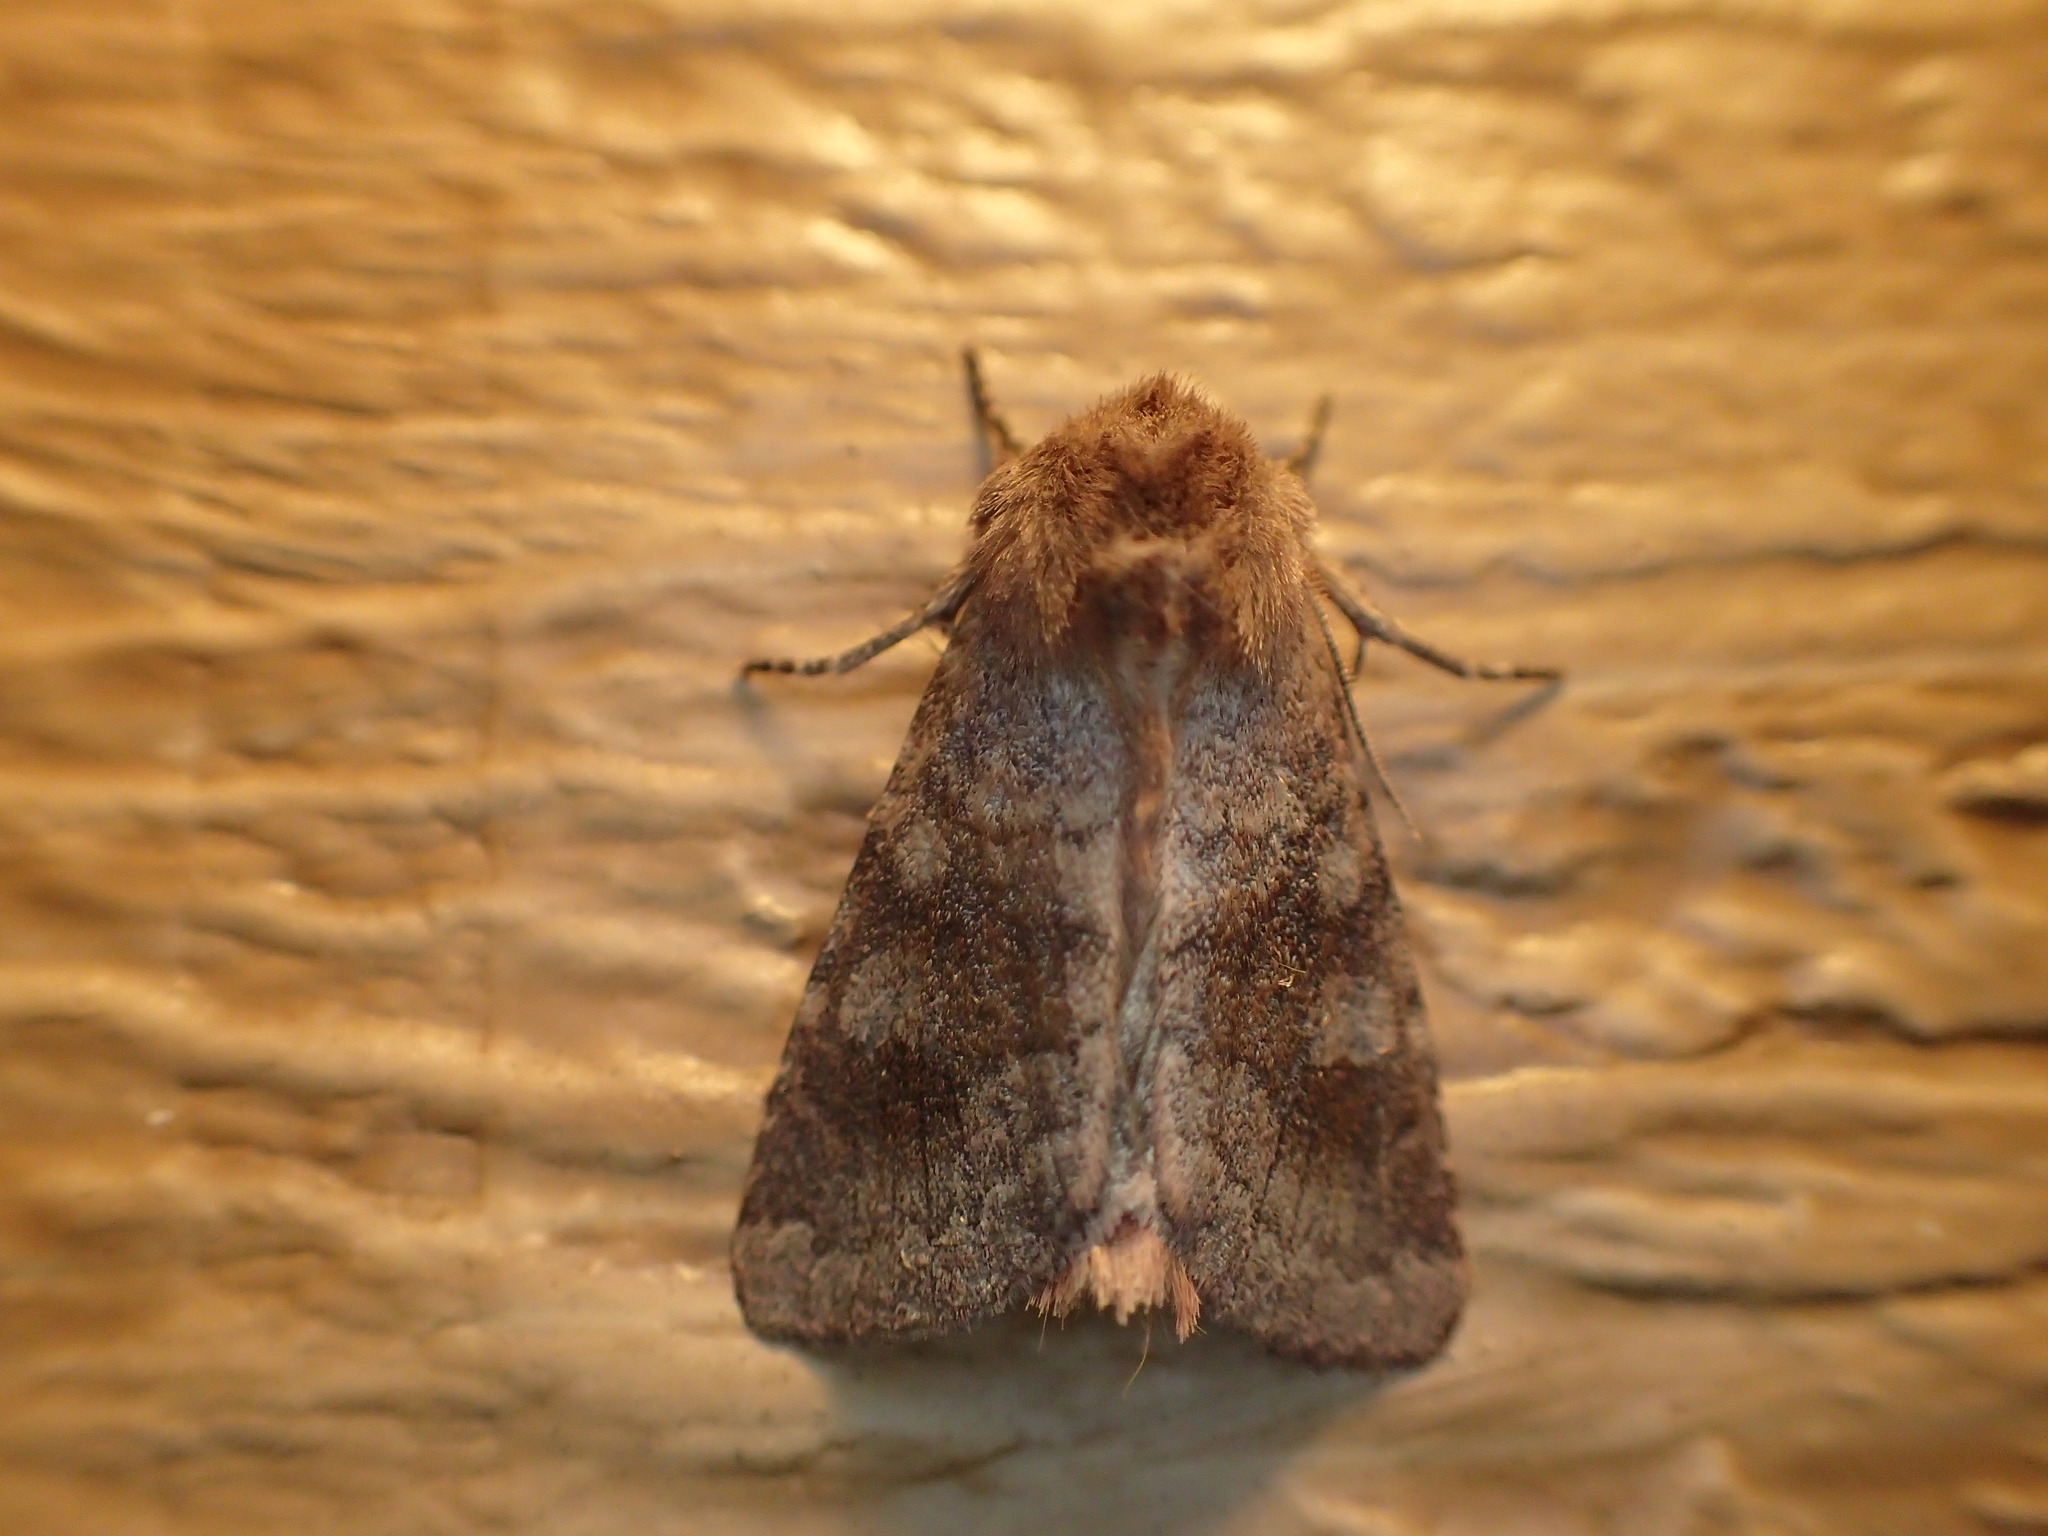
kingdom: Animalia
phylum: Arthropoda
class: Insecta
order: Lepidoptera
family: Noctuidae
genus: Nephelodes
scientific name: Nephelodes minians
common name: Bronzed cutworm
